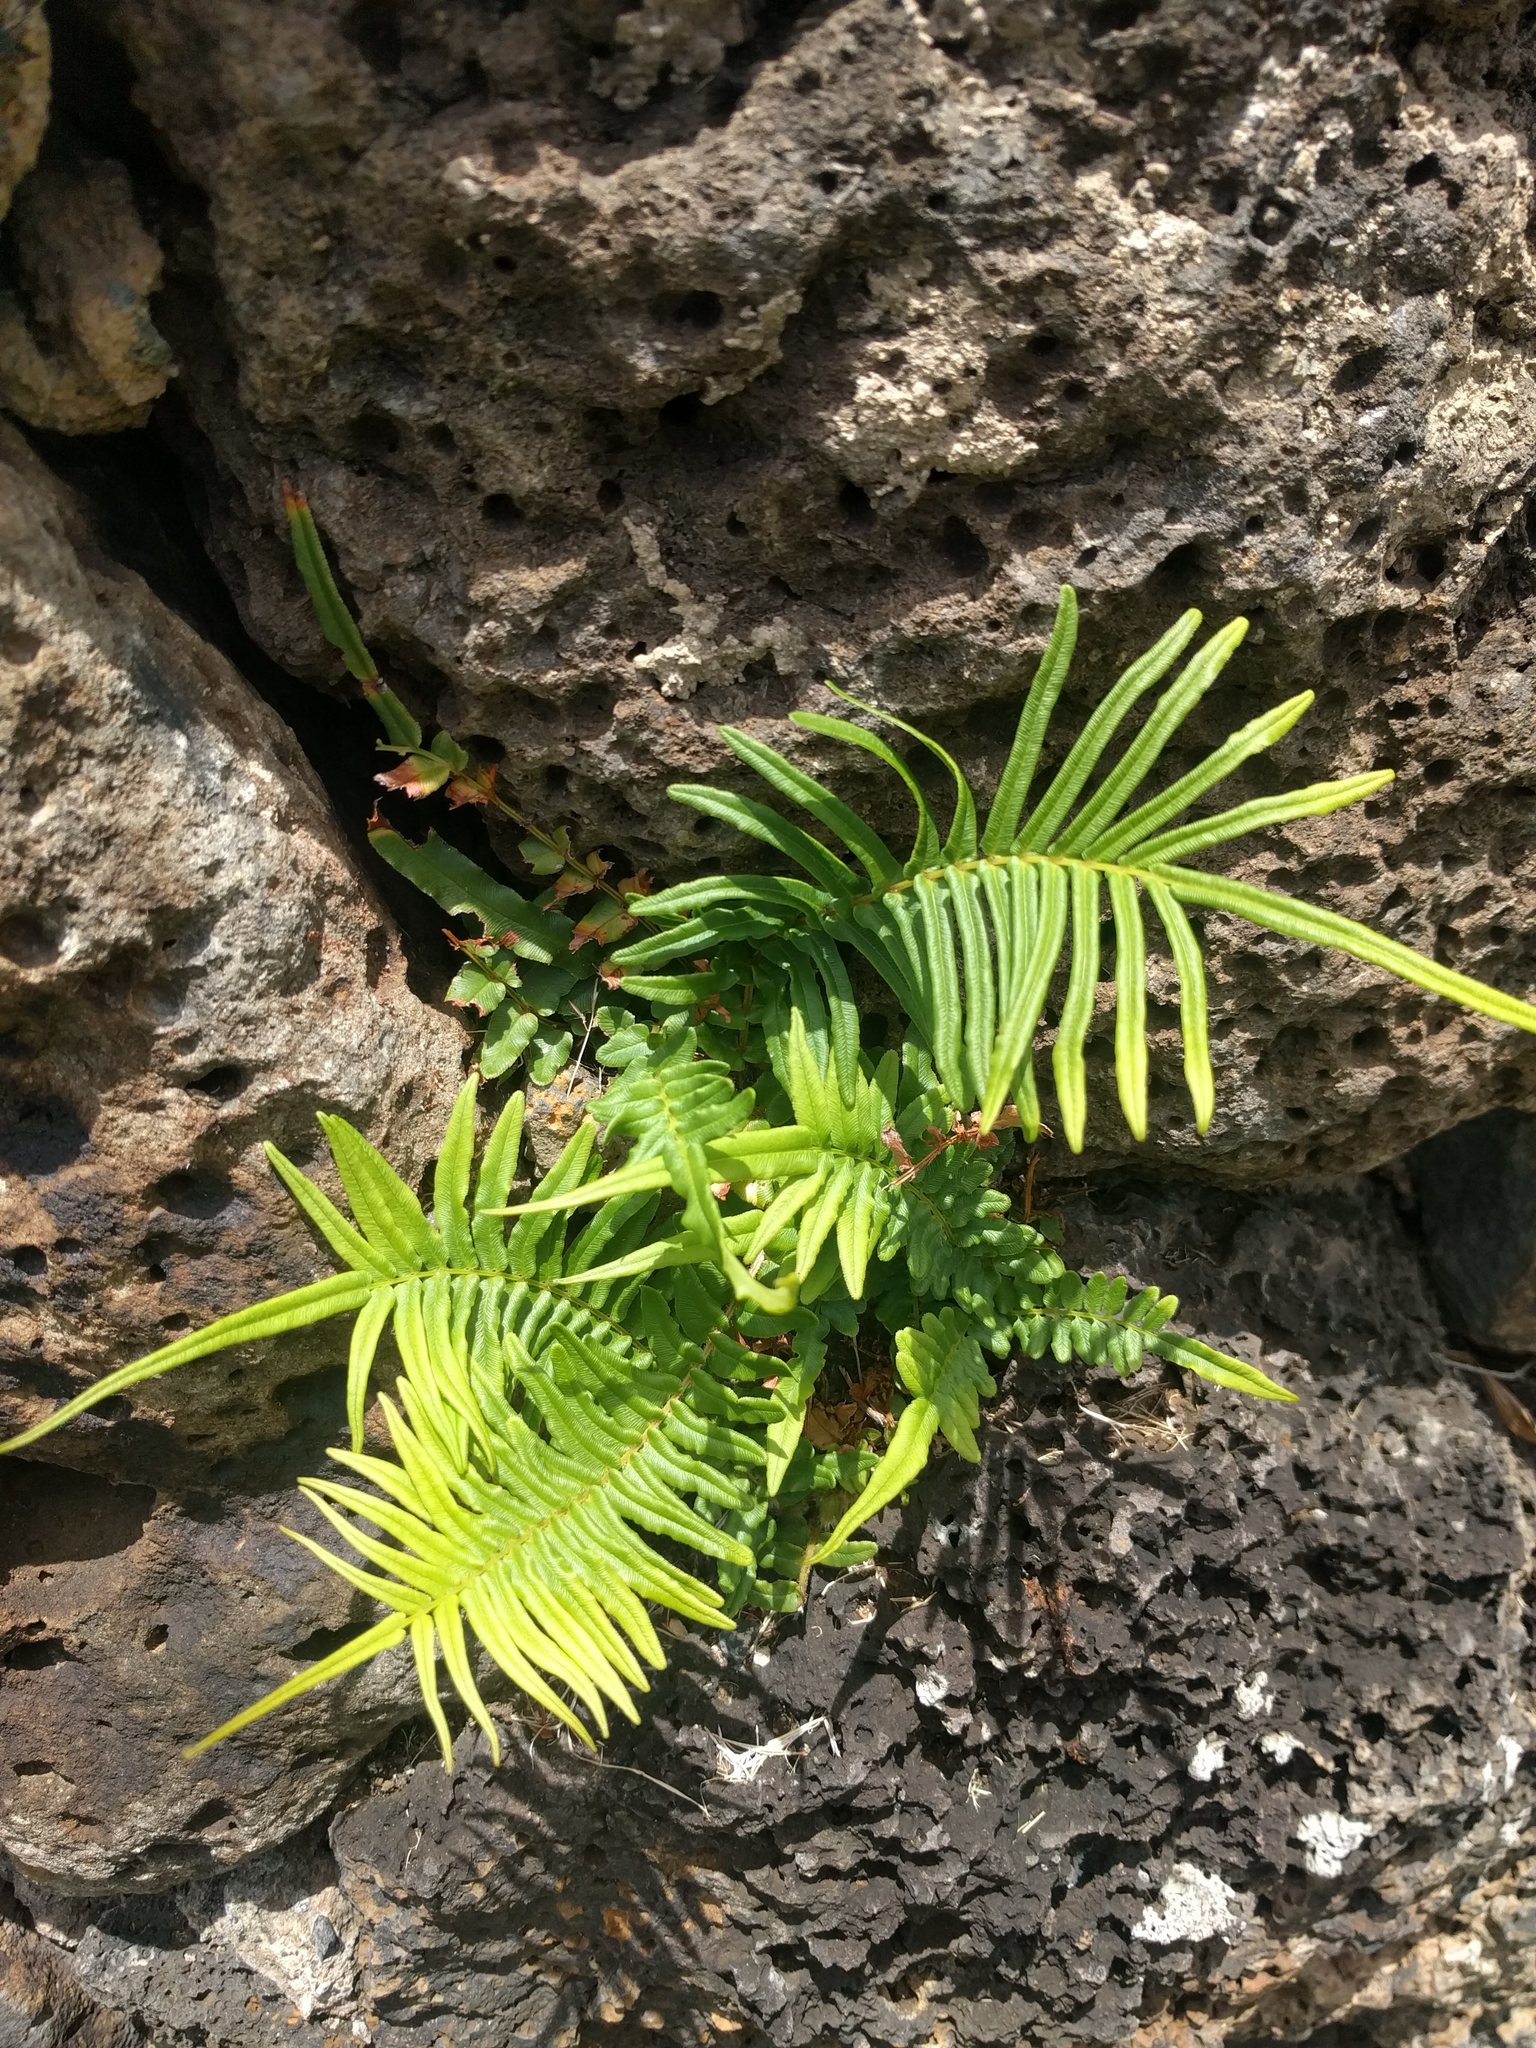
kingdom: Plantae
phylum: Tracheophyta
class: Polypodiopsida
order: Polypodiales
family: Pteridaceae
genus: Pteris
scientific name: Pteris vittata
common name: Ladder brake
